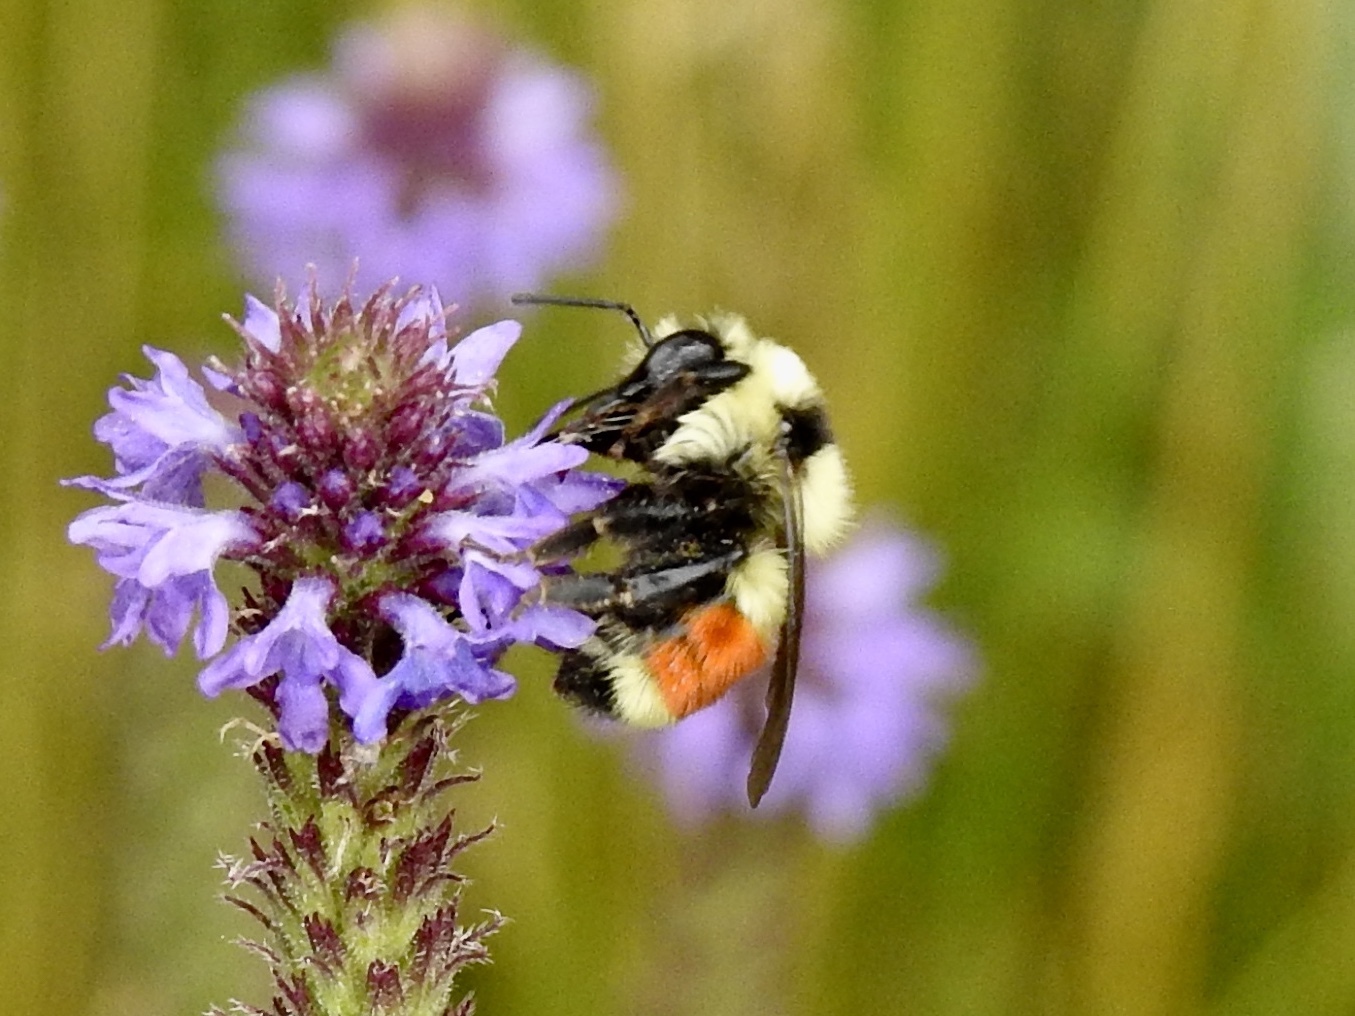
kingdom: Animalia
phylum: Arthropoda
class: Insecta
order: Hymenoptera
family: Apidae
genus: Bombus
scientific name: Bombus huntii
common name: Hunt bumble bee
